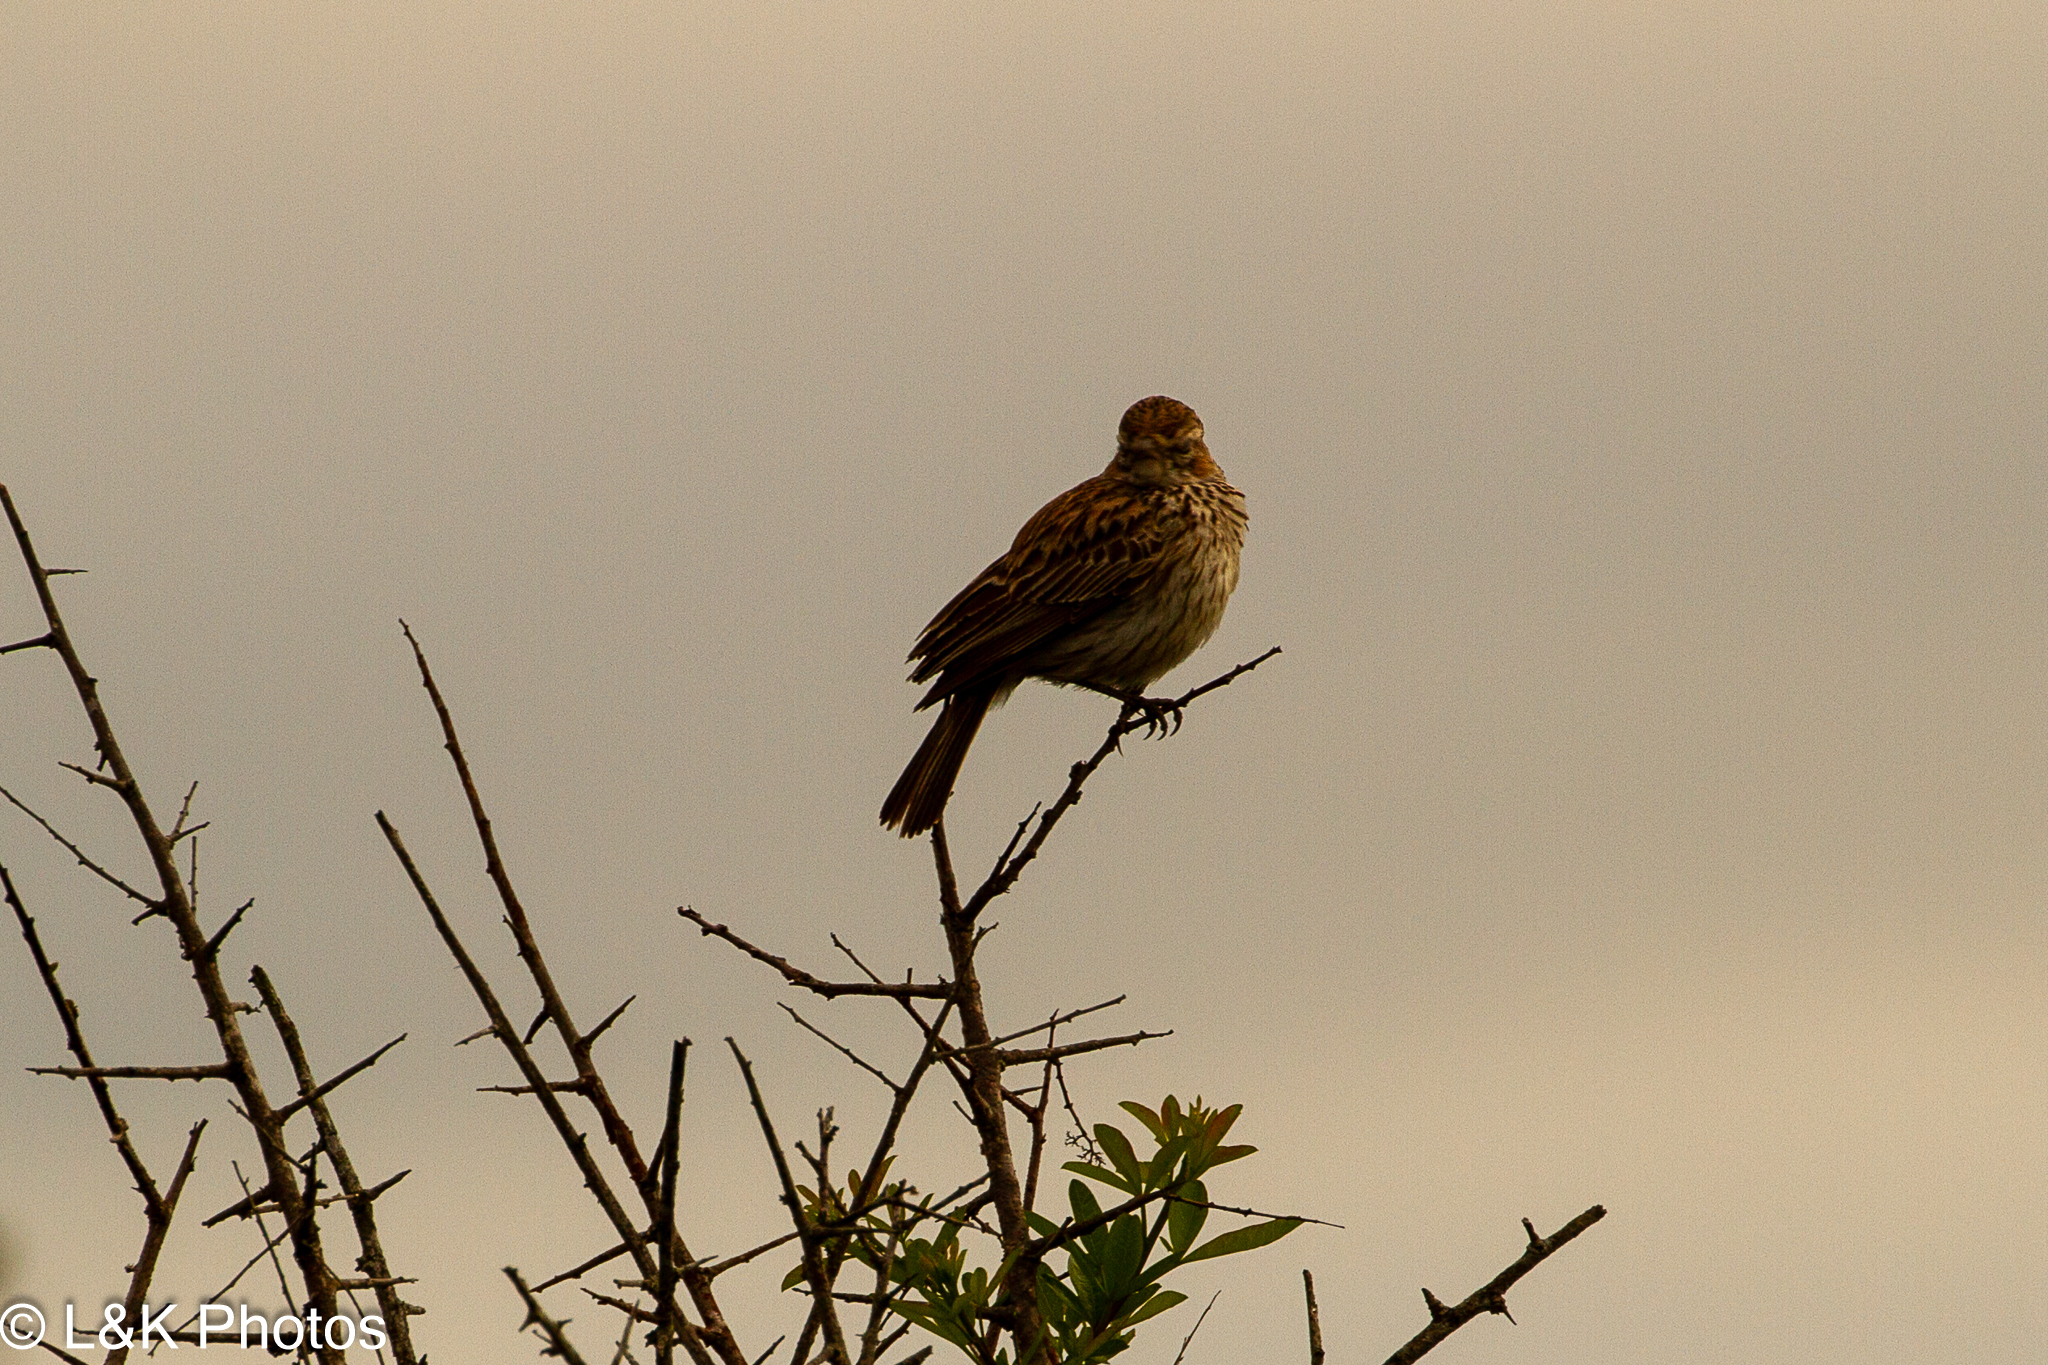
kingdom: Animalia
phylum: Chordata
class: Aves
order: Passeriformes
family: Alaudidae
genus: Calendulauda
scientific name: Calendulauda albescens
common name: Karoo lark
